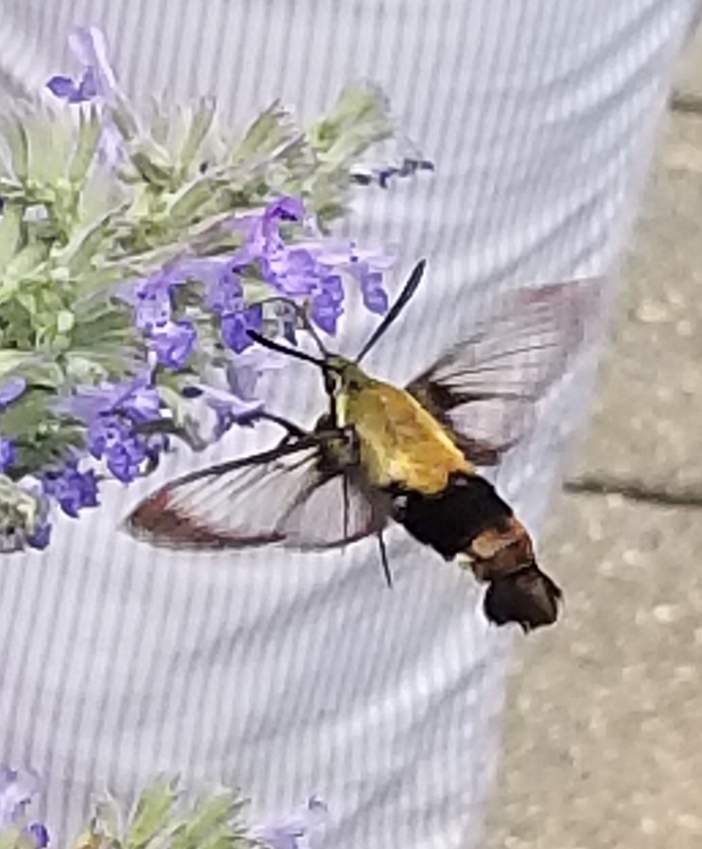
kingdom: Animalia
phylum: Arthropoda
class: Insecta
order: Lepidoptera
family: Sphingidae
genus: Hemaris
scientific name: Hemaris diffinis
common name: Bumblebee moth
